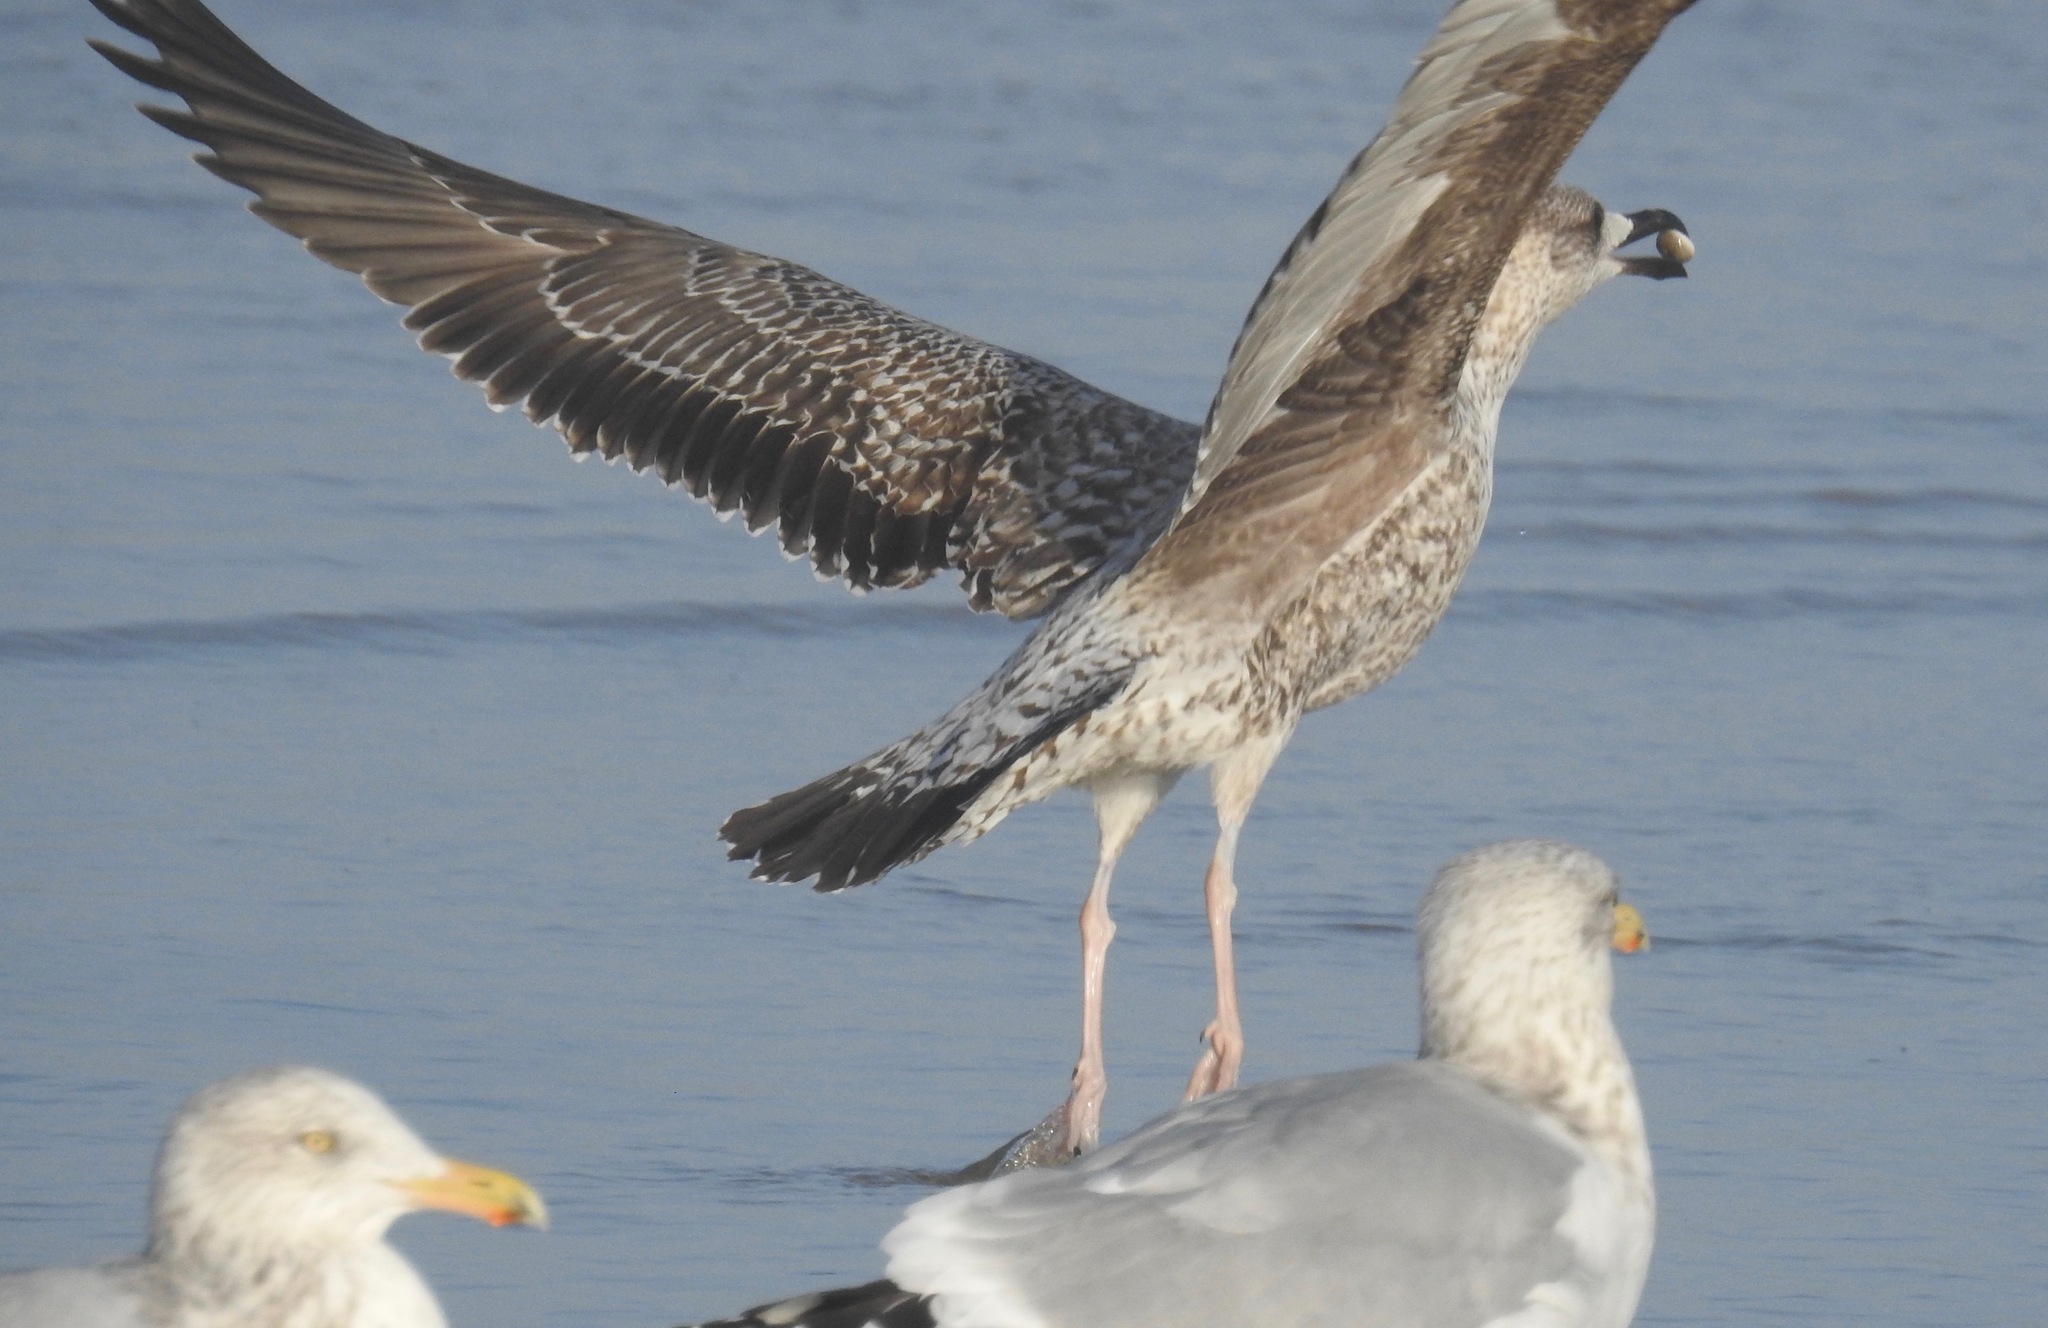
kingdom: Animalia
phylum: Chordata
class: Aves
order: Charadriiformes
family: Laridae
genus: Larus
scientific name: Larus fuscus
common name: Lesser black-backed gull
